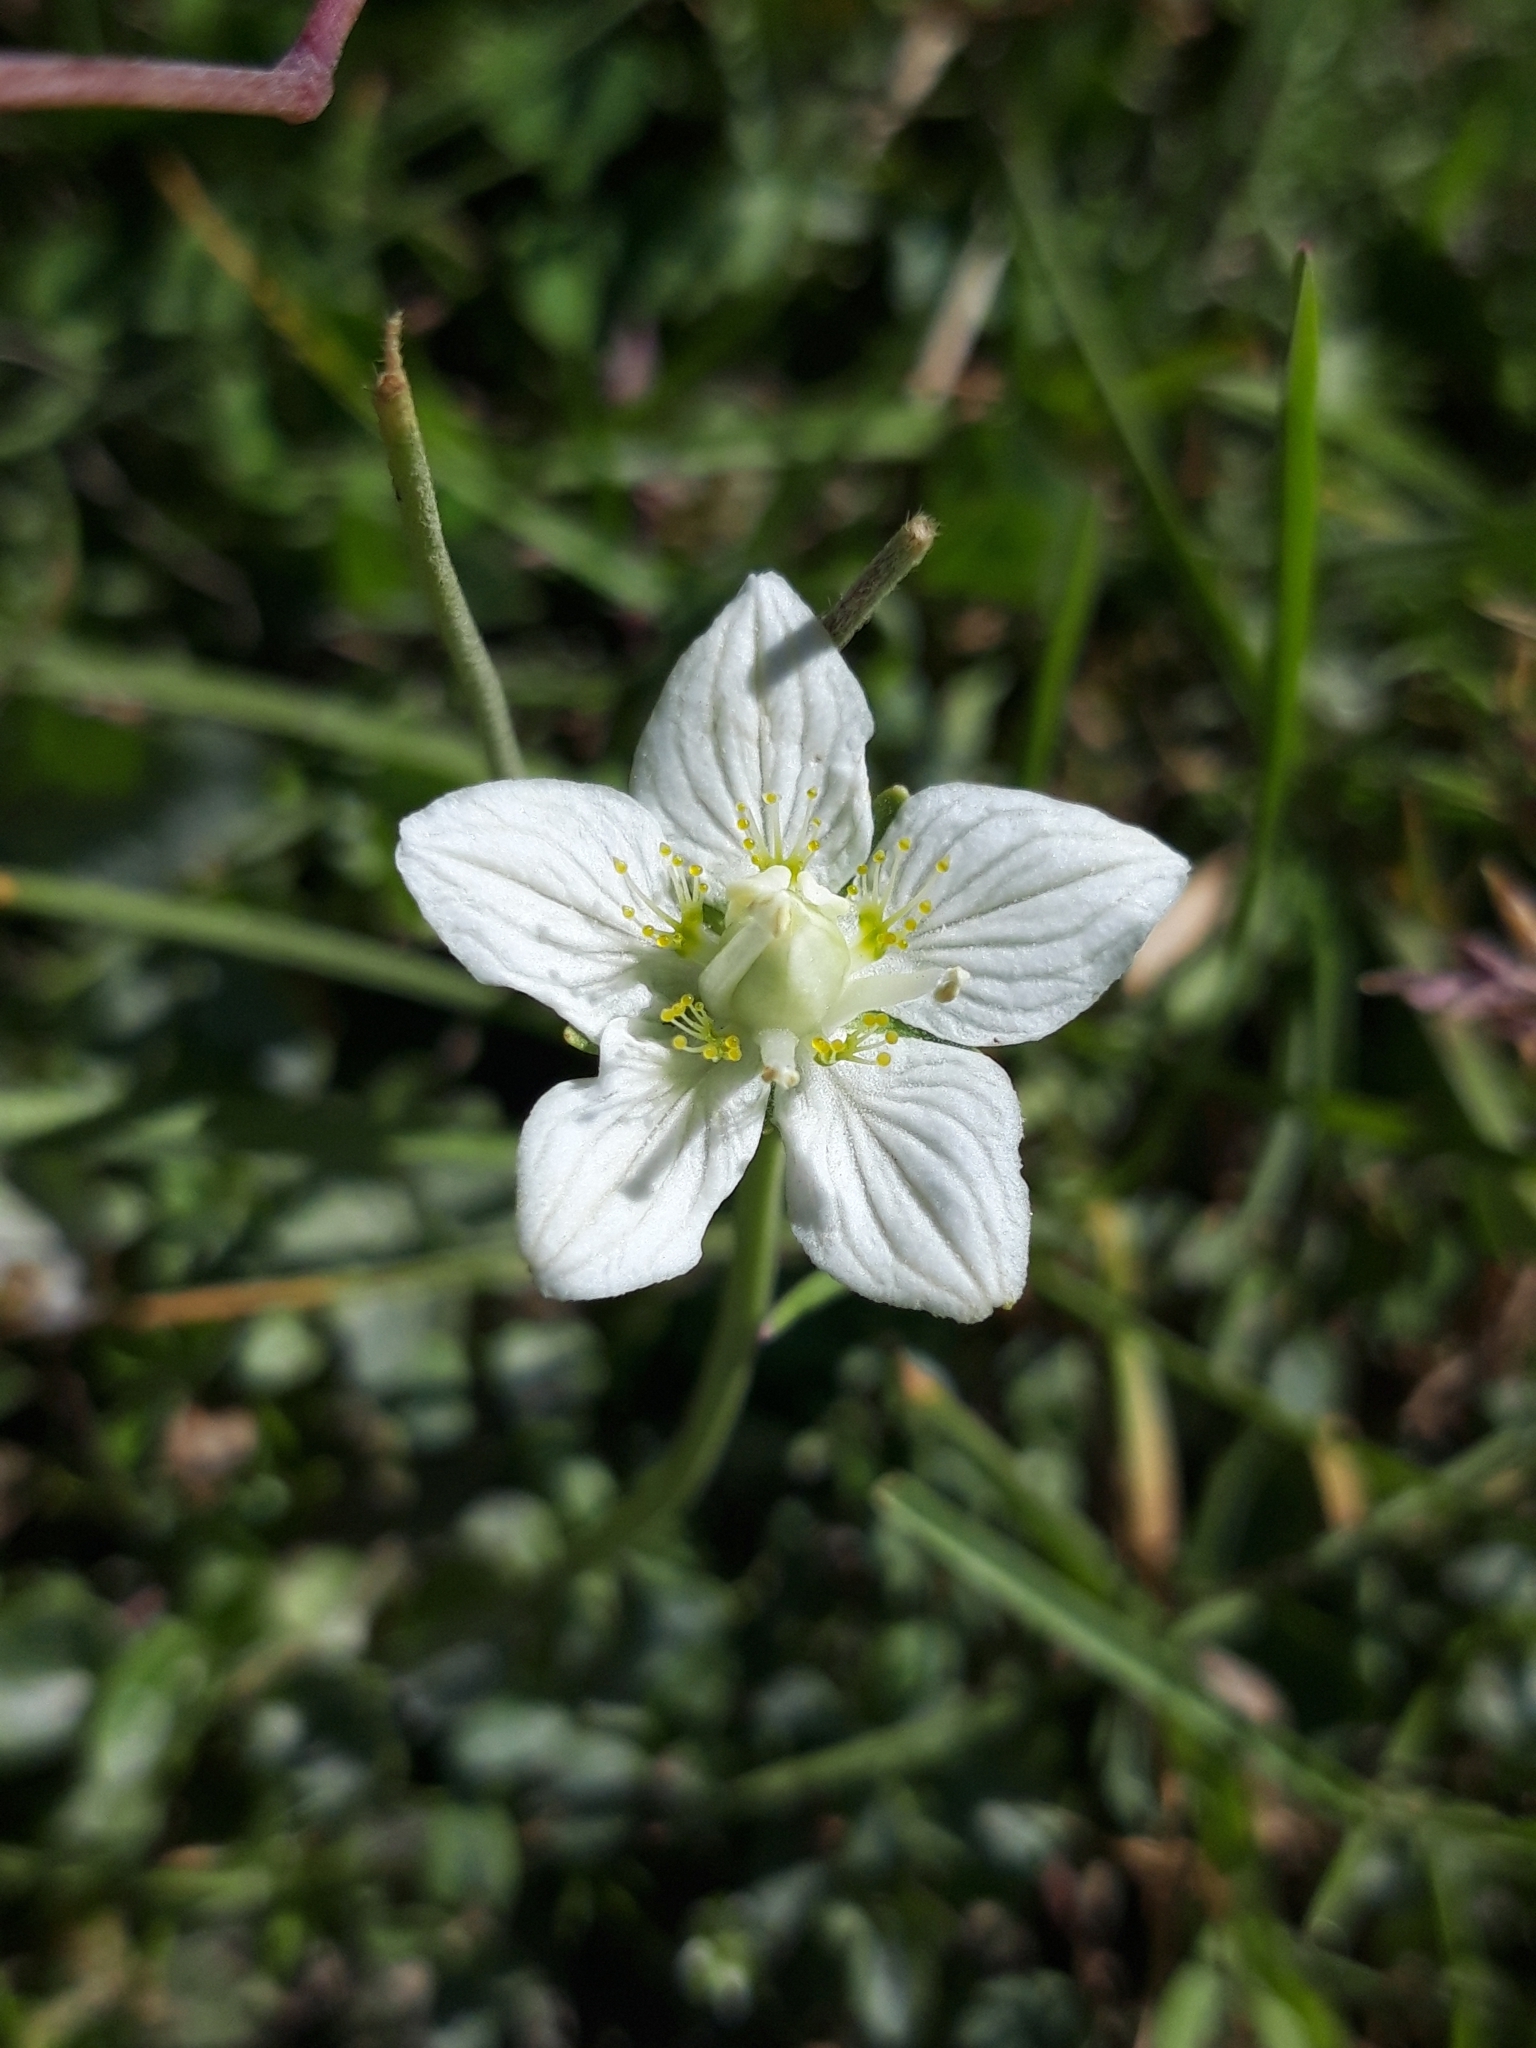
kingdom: Plantae
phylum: Tracheophyta
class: Magnoliopsida
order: Celastrales
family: Parnassiaceae
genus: Parnassia
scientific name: Parnassia palustris
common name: Grass-of-parnassus
